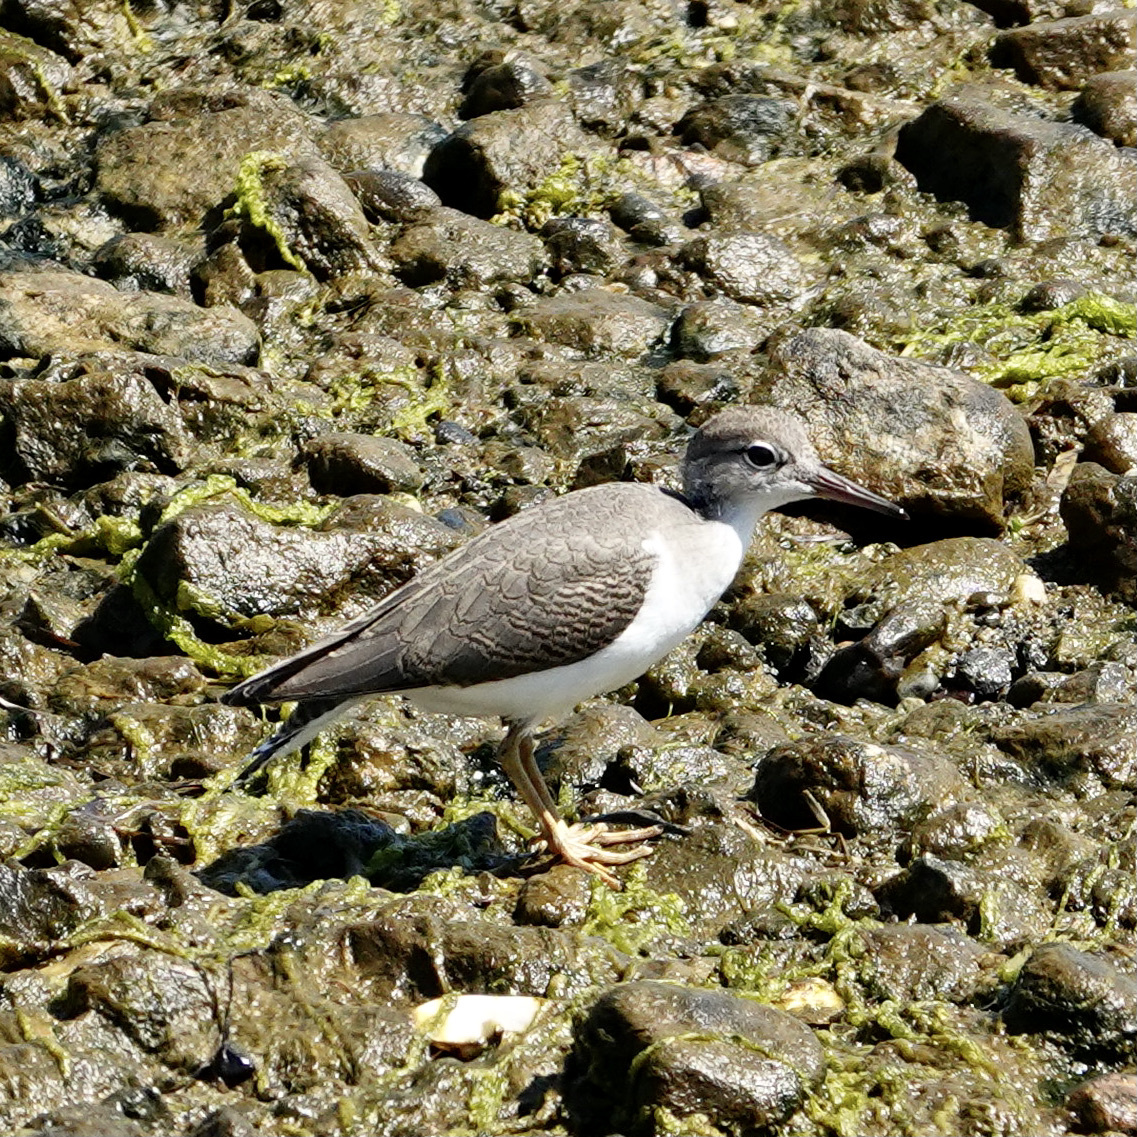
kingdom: Animalia
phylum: Chordata
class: Aves
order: Charadriiformes
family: Scolopacidae
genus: Actitis
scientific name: Actitis macularius
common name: Spotted sandpiper
